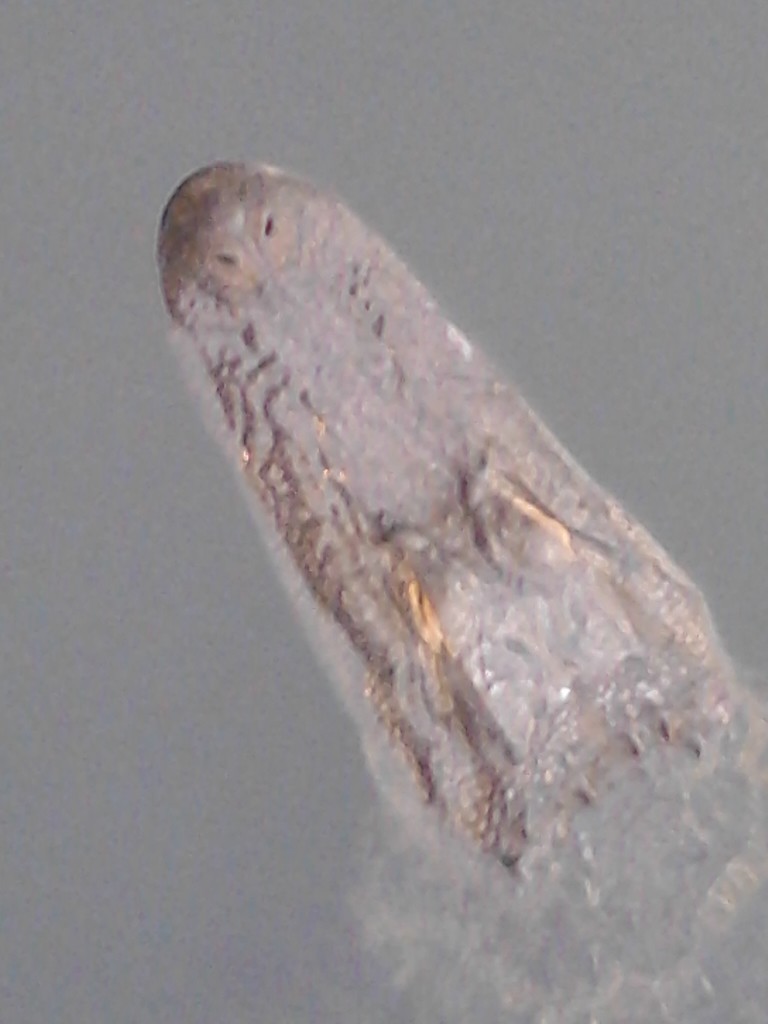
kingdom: Animalia
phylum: Chordata
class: Crocodylia
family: Alligatoridae
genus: Alligator
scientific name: Alligator mississippiensis
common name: American alligator
